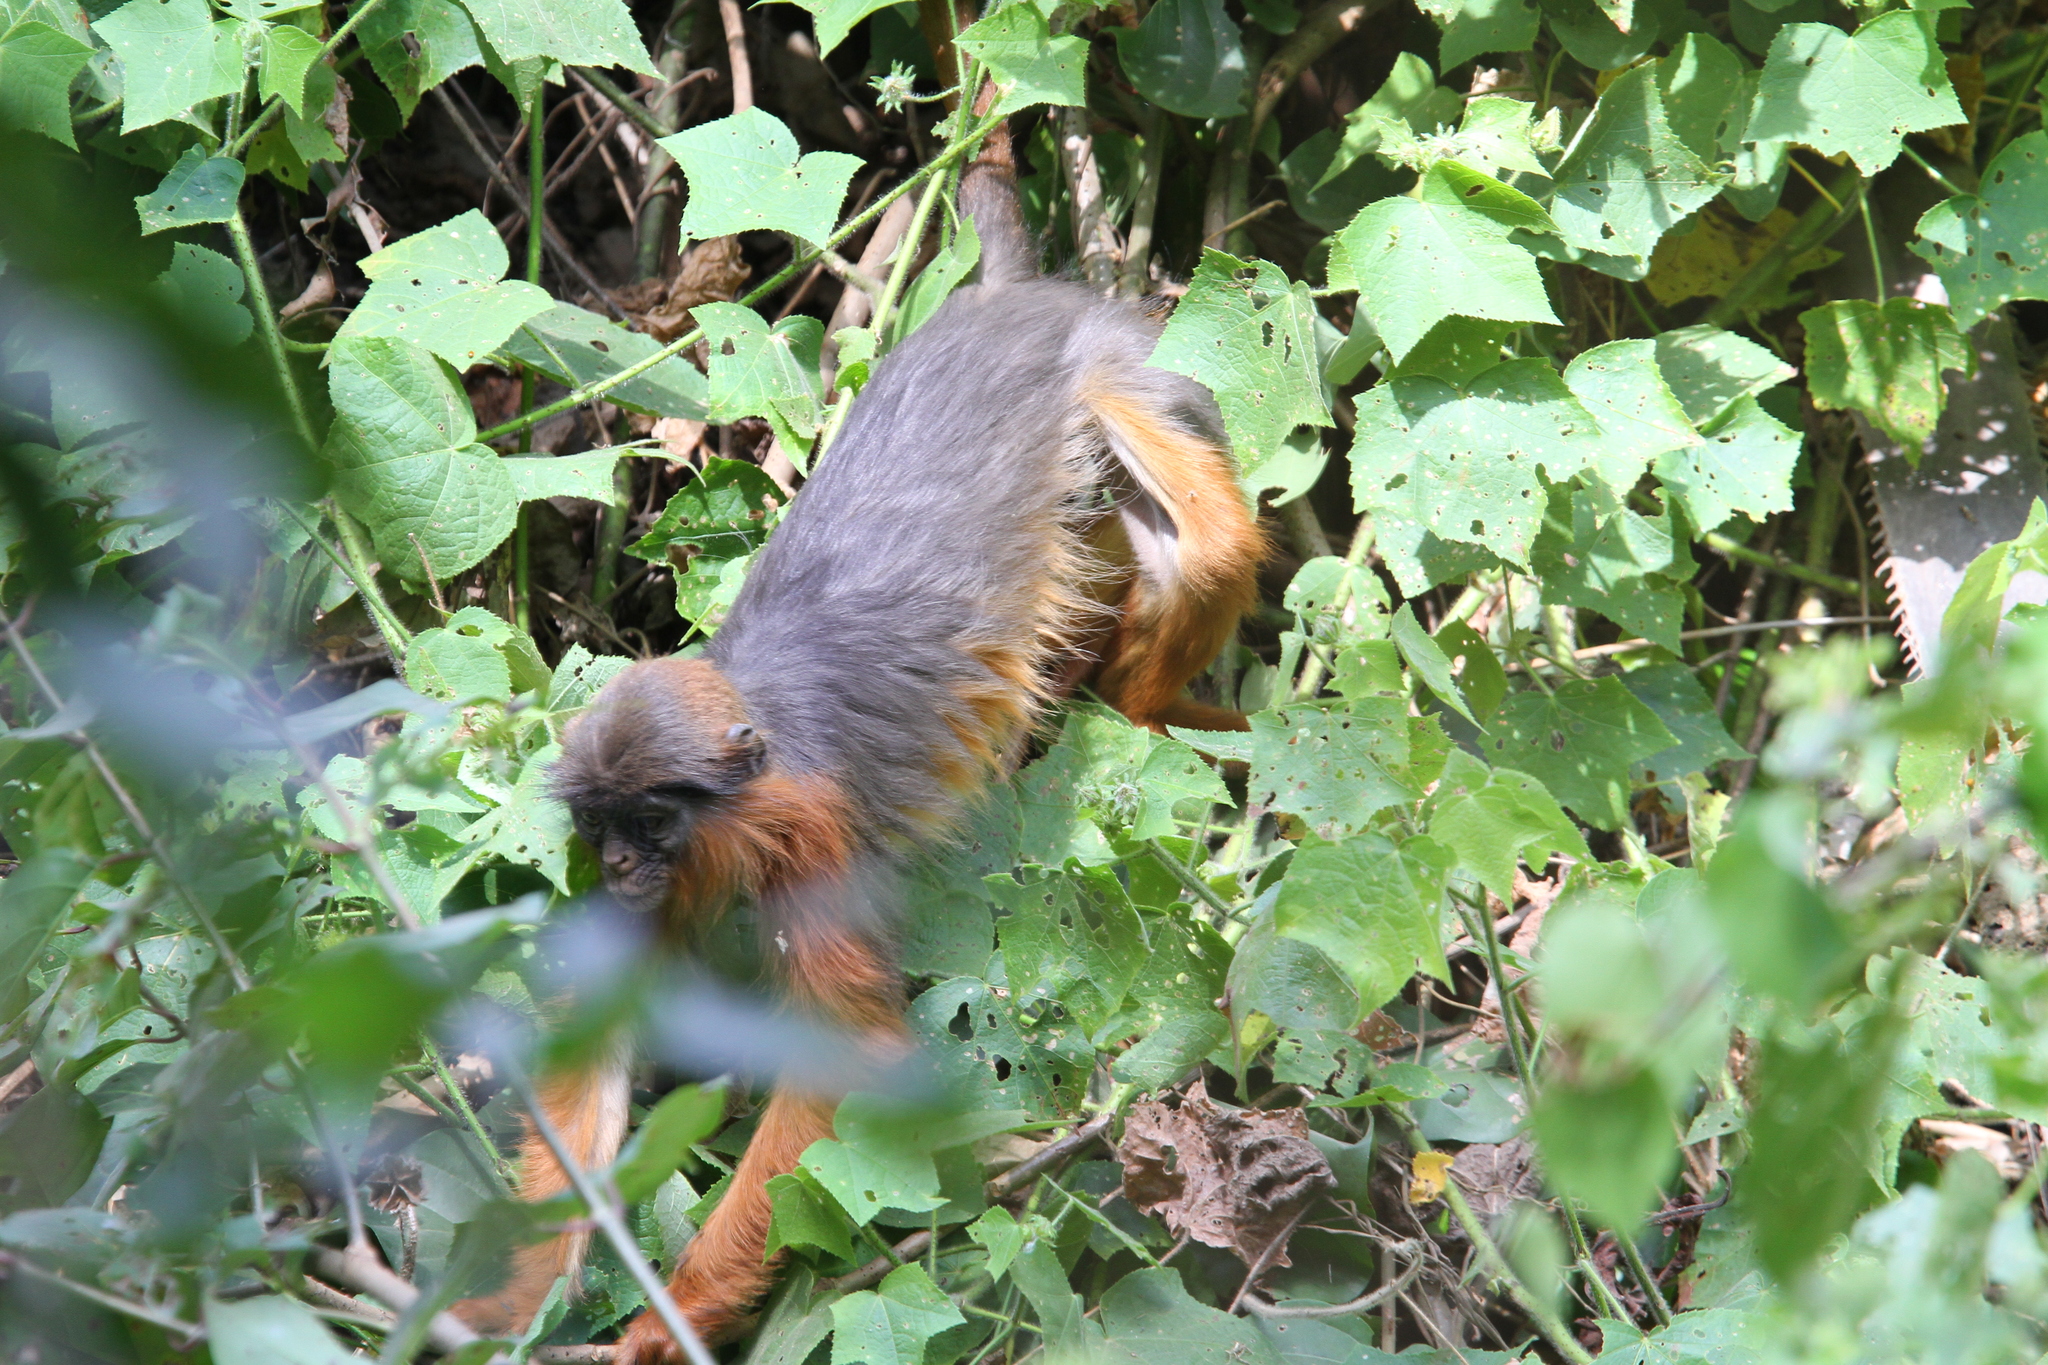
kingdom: Animalia
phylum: Chordata
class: Mammalia
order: Primates
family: Cercopithecidae
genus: Piliocolobus
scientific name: Piliocolobus badius
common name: Western red colobus
